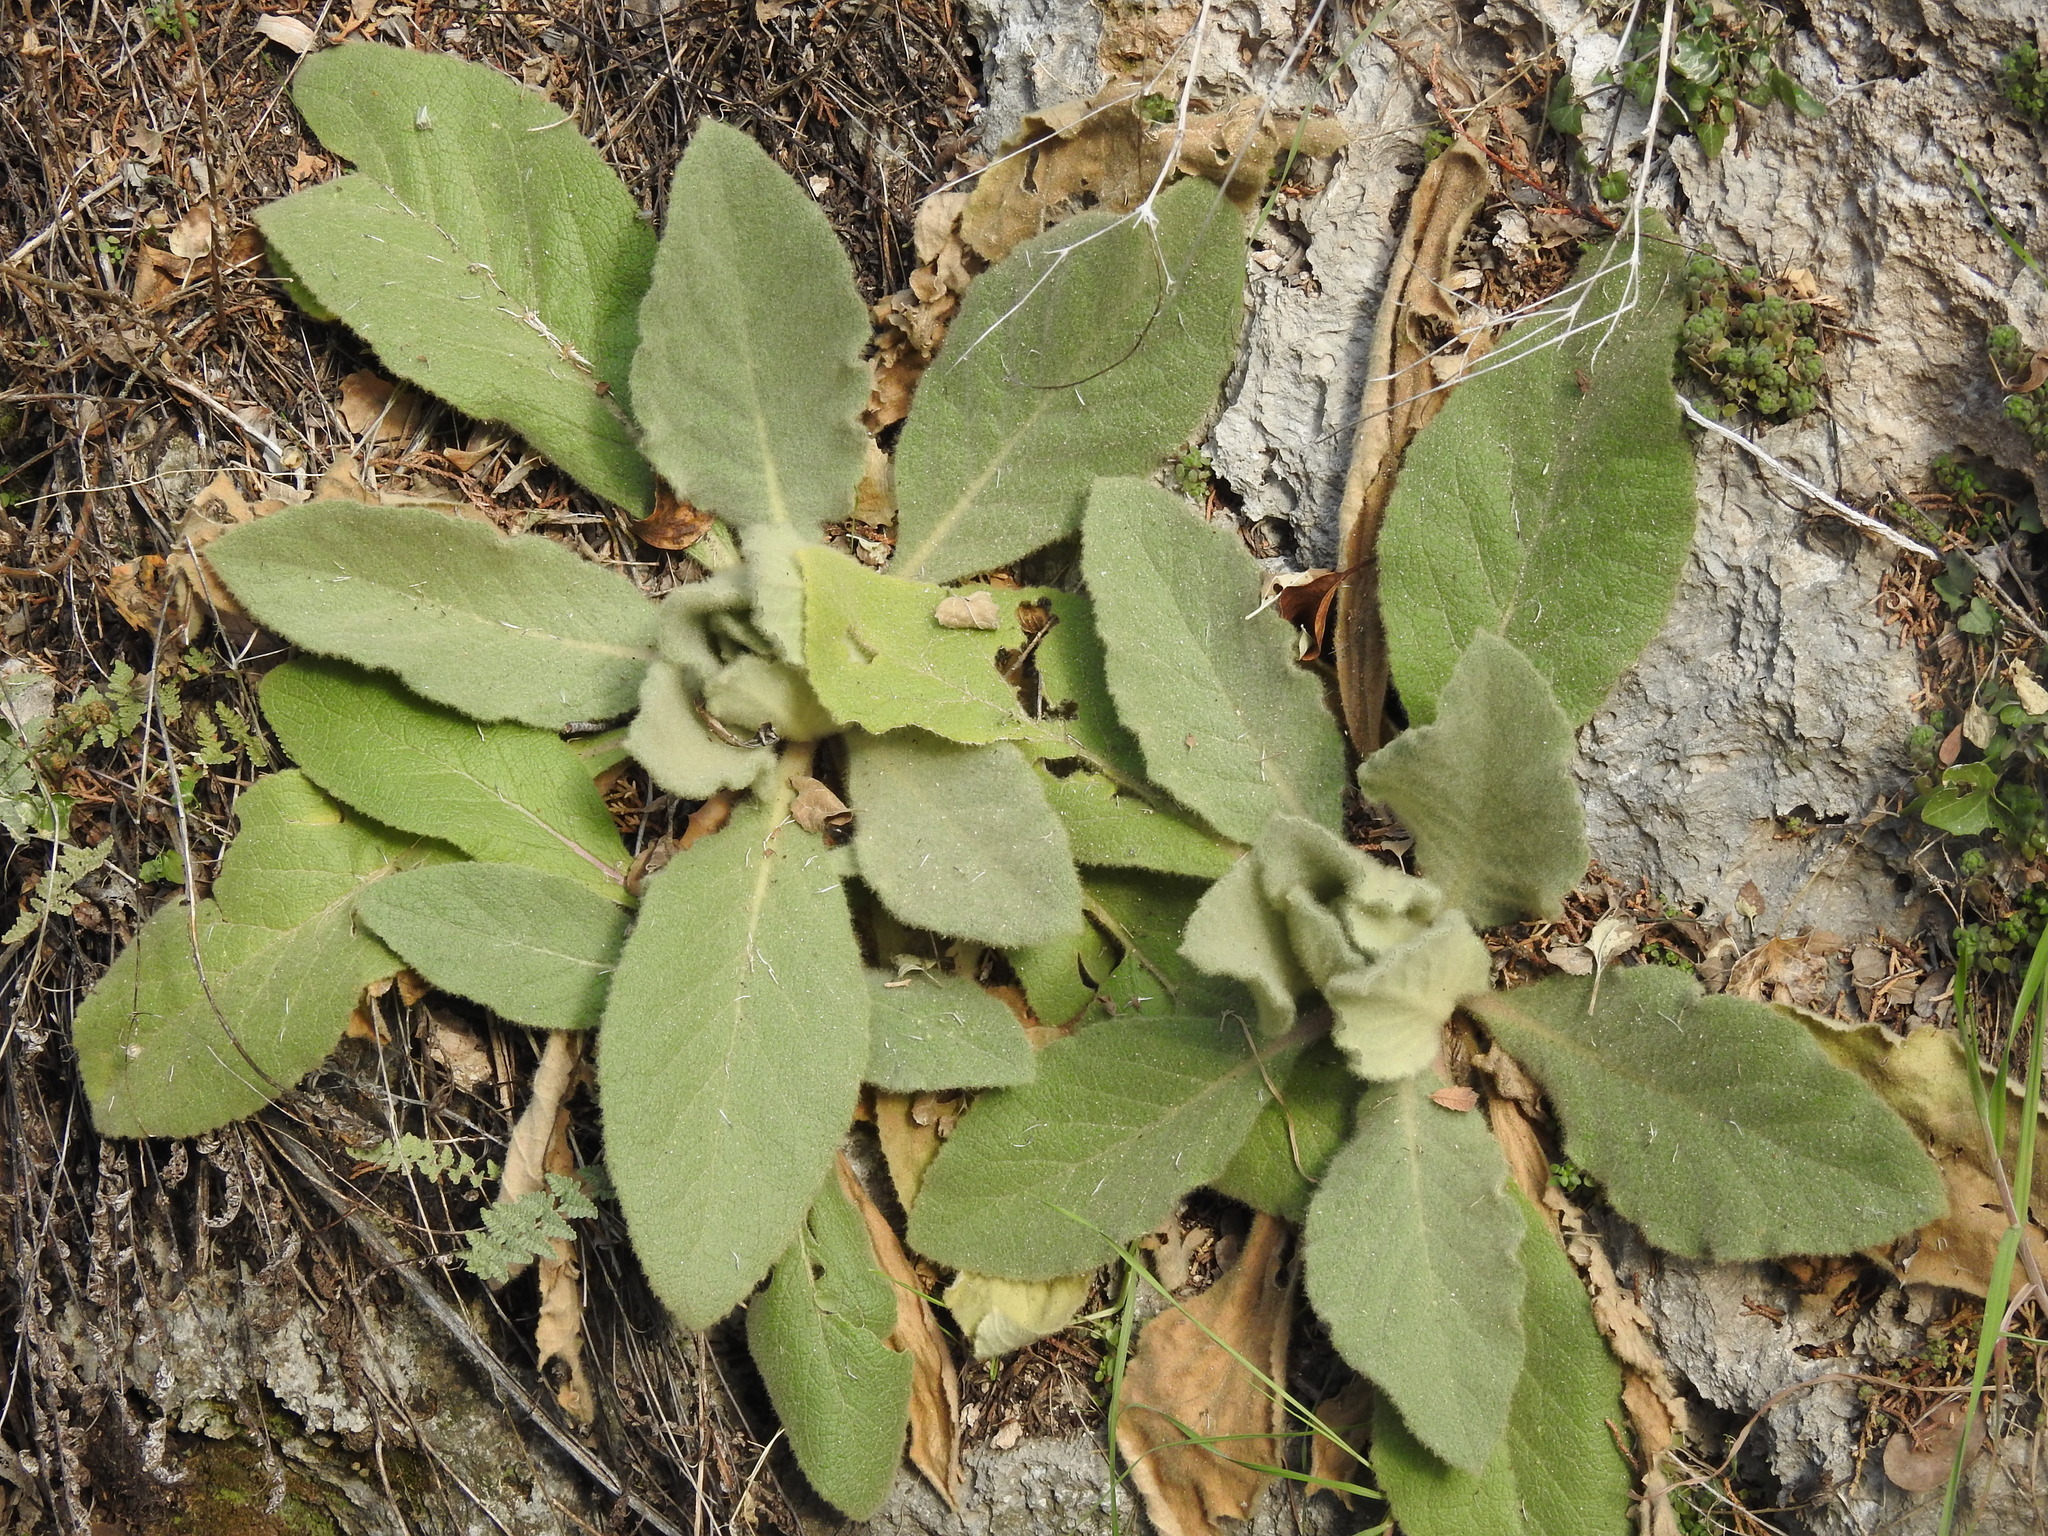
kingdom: Plantae
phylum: Tracheophyta
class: Magnoliopsida
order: Lamiales
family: Scrophulariaceae
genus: Verbascum
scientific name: Verbascum thapsus
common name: Common mullein
